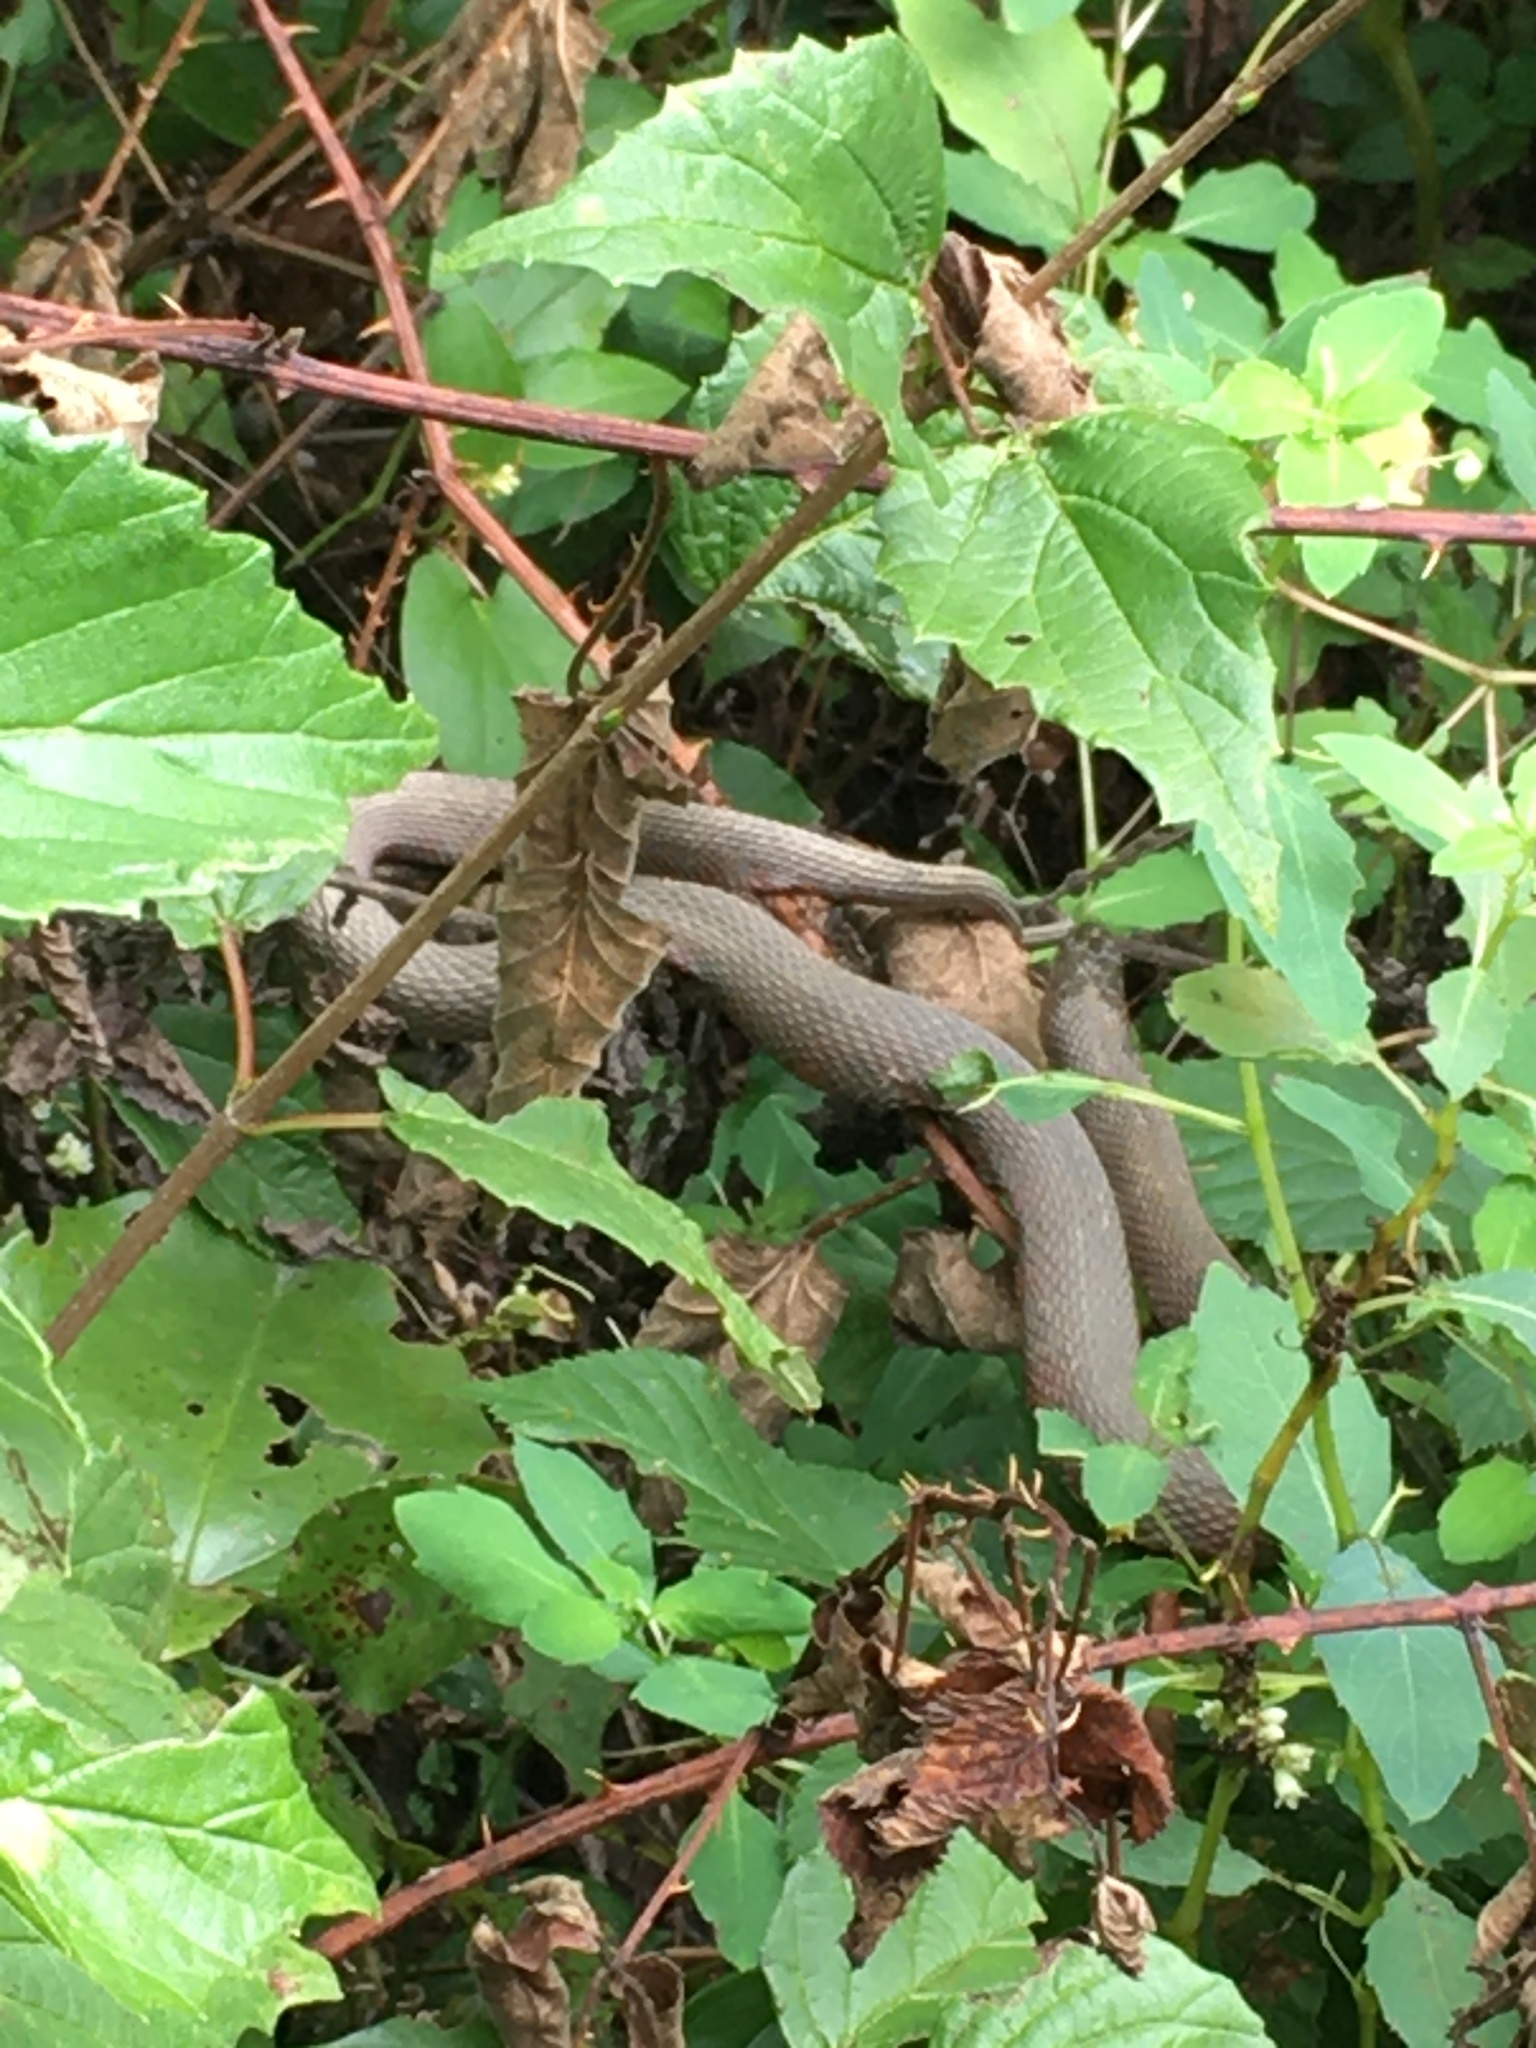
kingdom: Animalia
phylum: Chordata
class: Squamata
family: Colubridae
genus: Nerodia
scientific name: Nerodia sipedon
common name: Northern water snake
